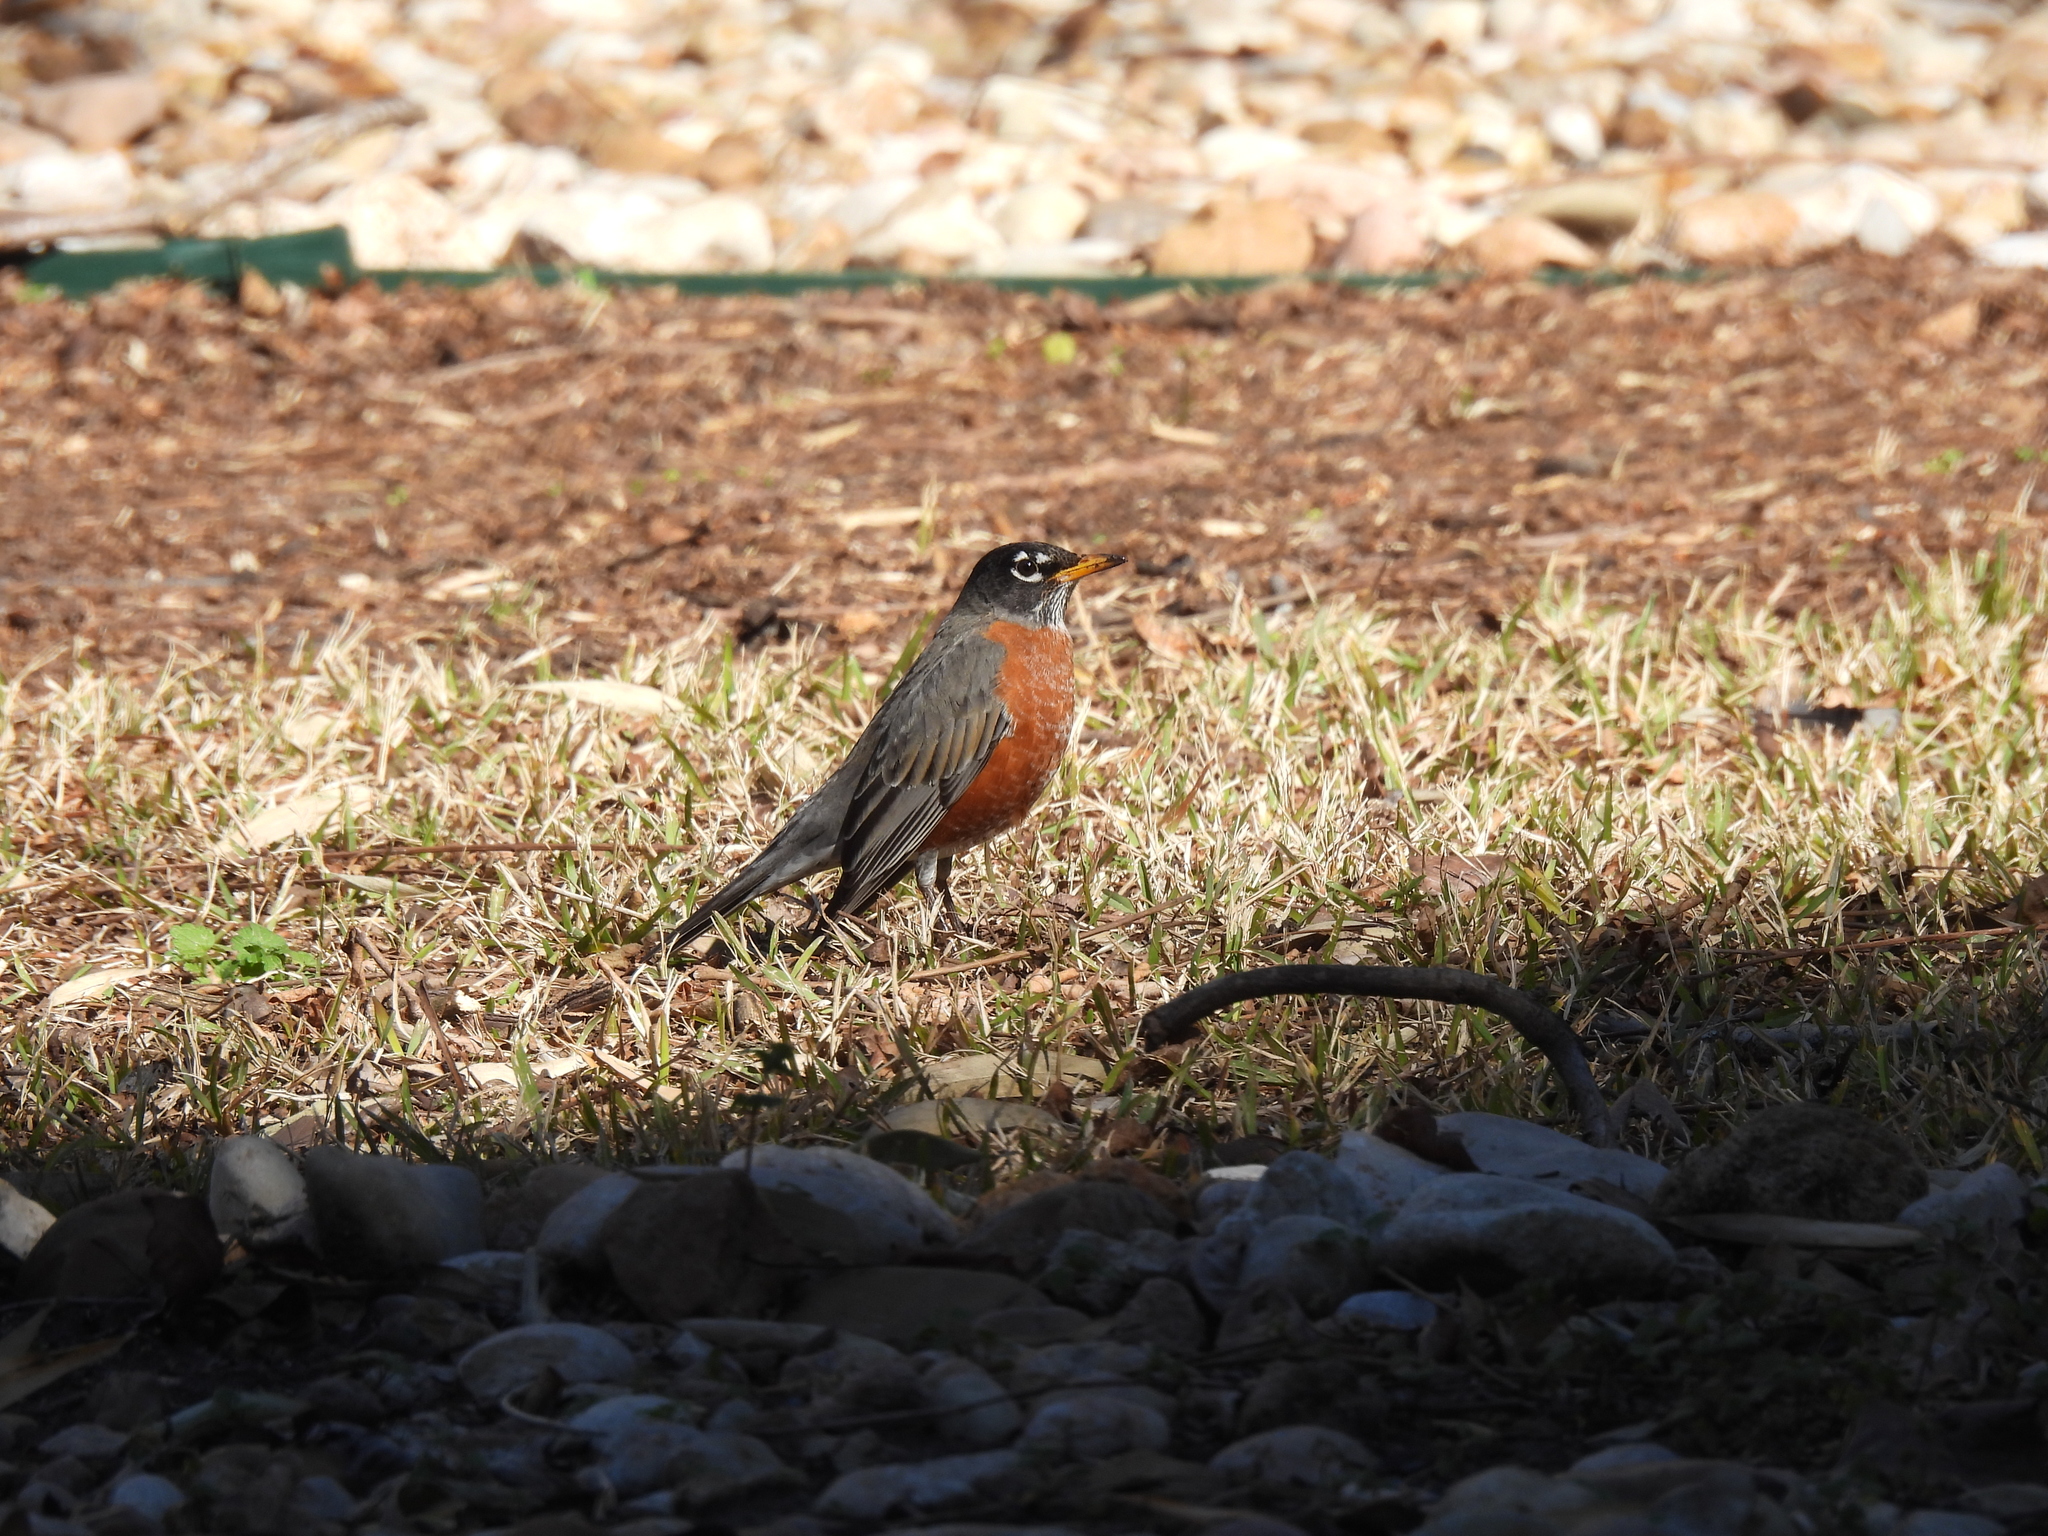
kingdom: Animalia
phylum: Chordata
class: Aves
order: Passeriformes
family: Turdidae
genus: Turdus
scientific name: Turdus migratorius
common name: American robin
